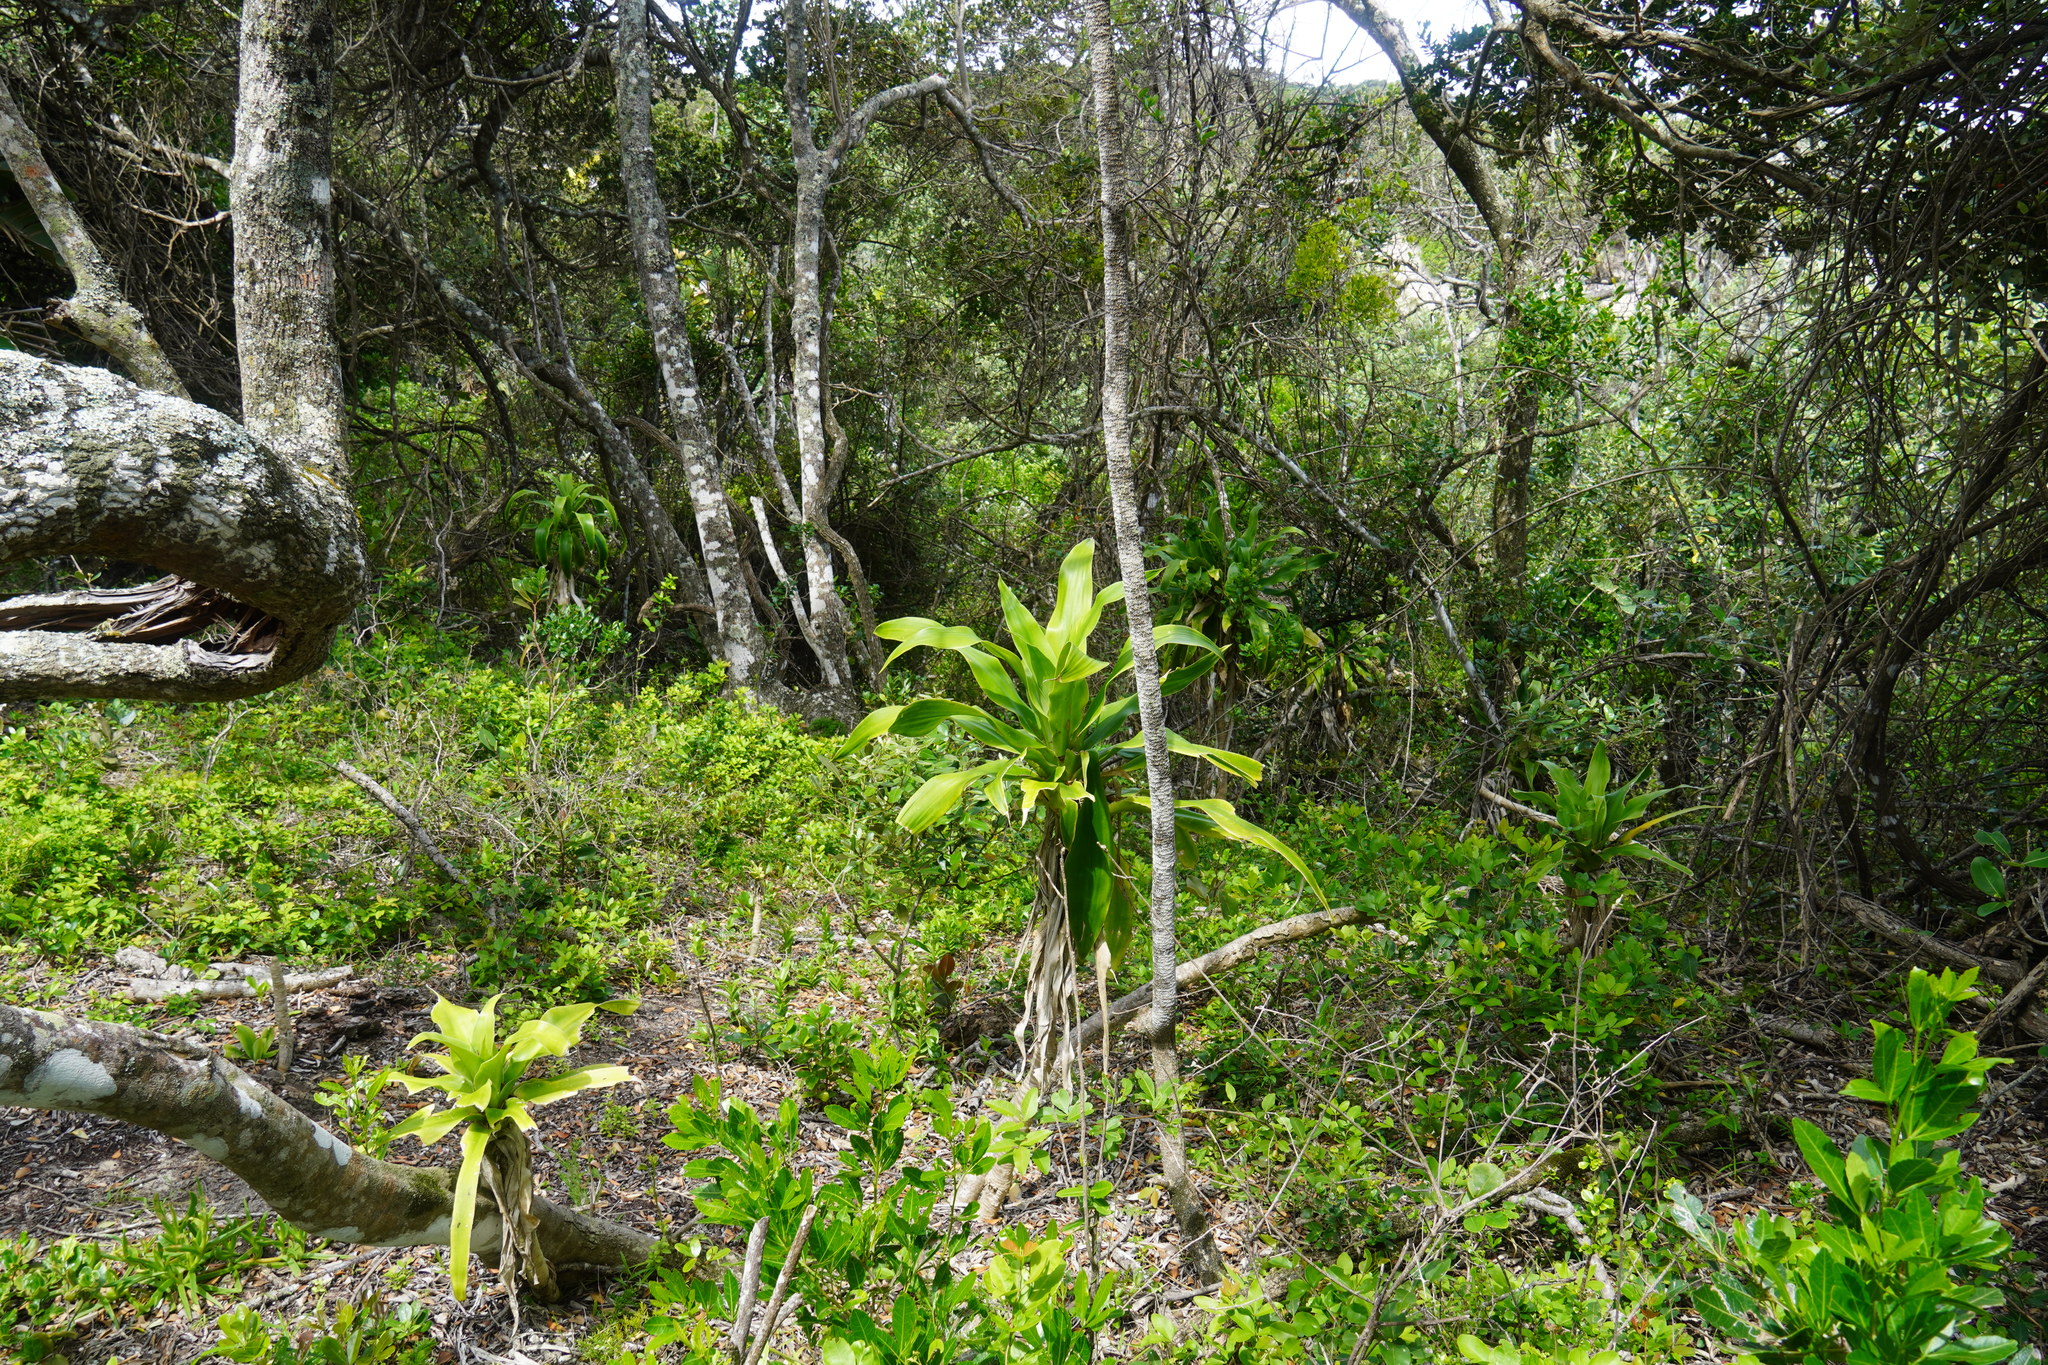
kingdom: Plantae
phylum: Tracheophyta
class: Liliopsida
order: Asparagales
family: Asparagaceae
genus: Dracaena
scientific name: Dracaena aletriformis
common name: Large-leaved dragon tree
